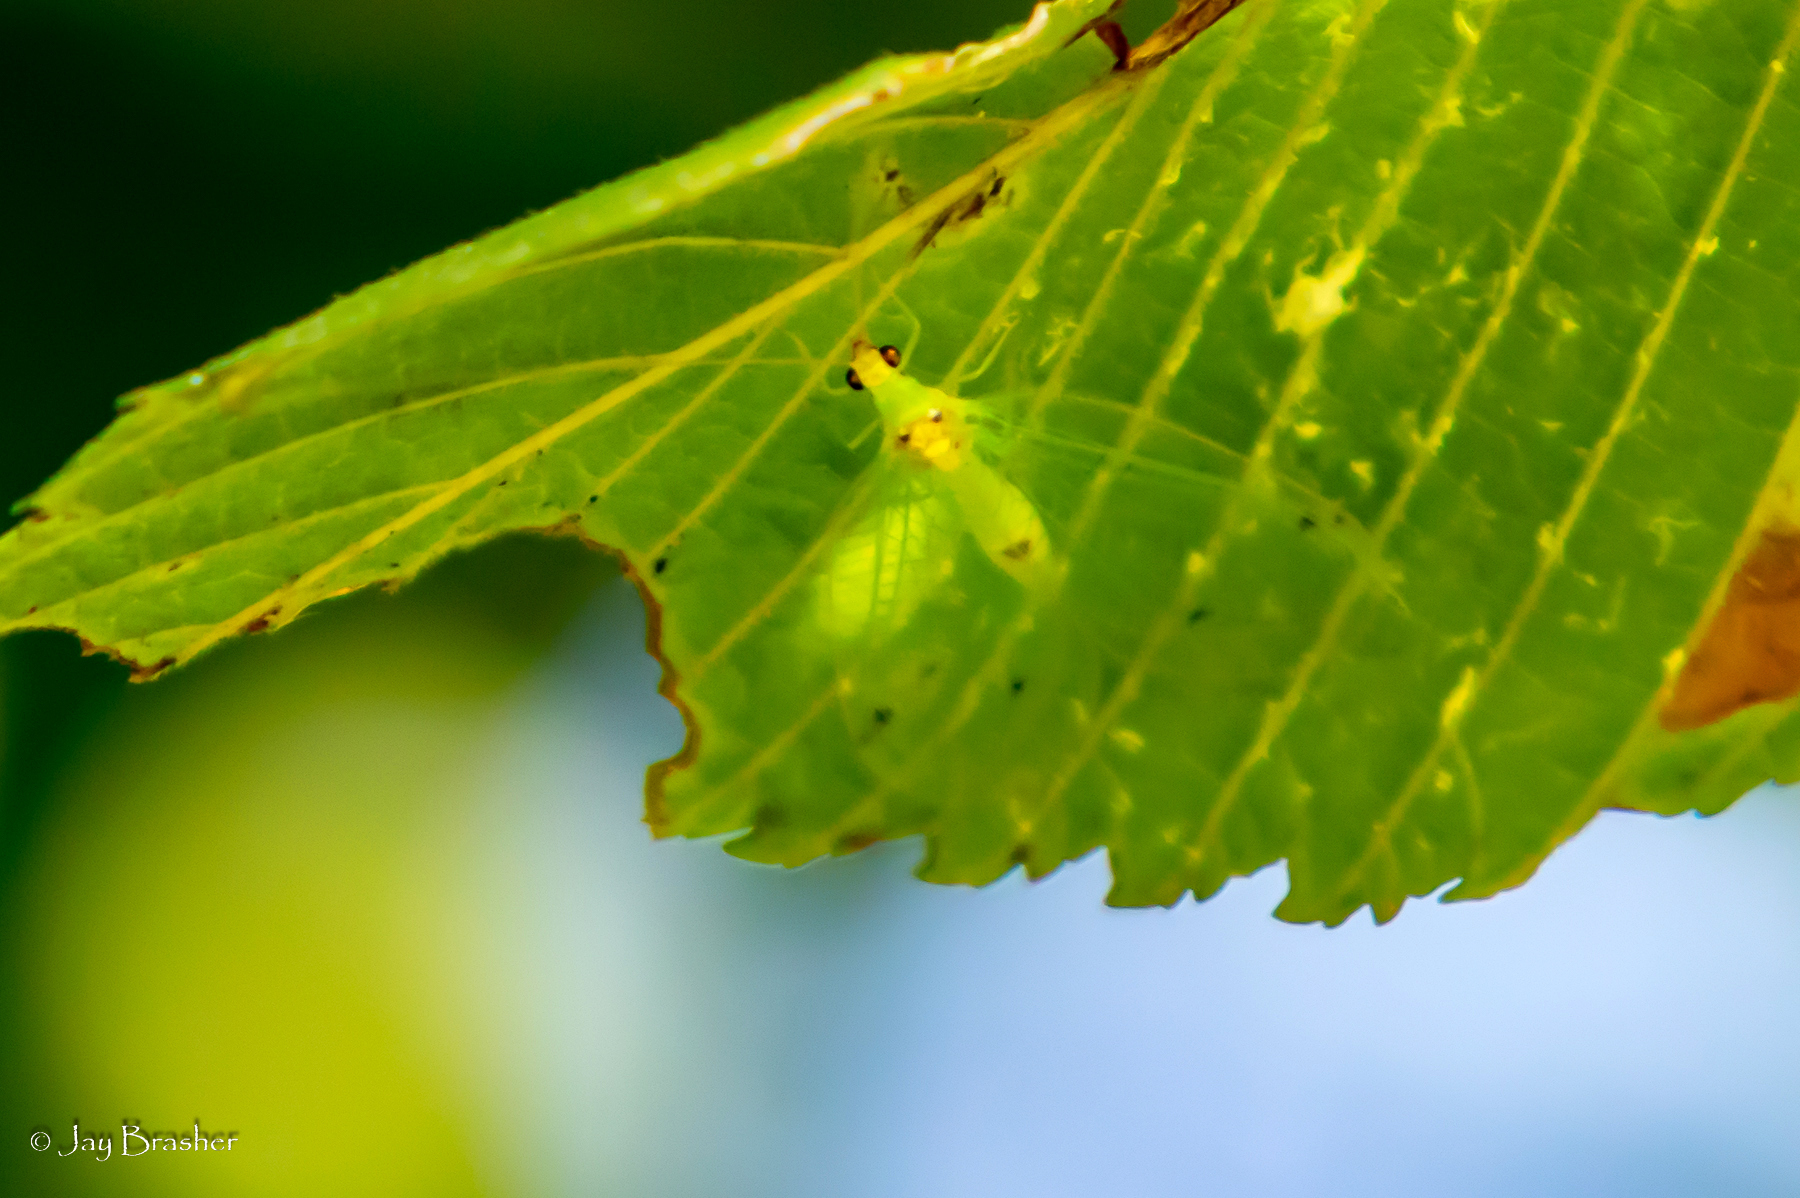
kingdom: Animalia
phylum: Arthropoda
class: Insecta
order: Neuroptera
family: Chrysopidae
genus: Leucochrysa
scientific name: Leucochrysa insularis
